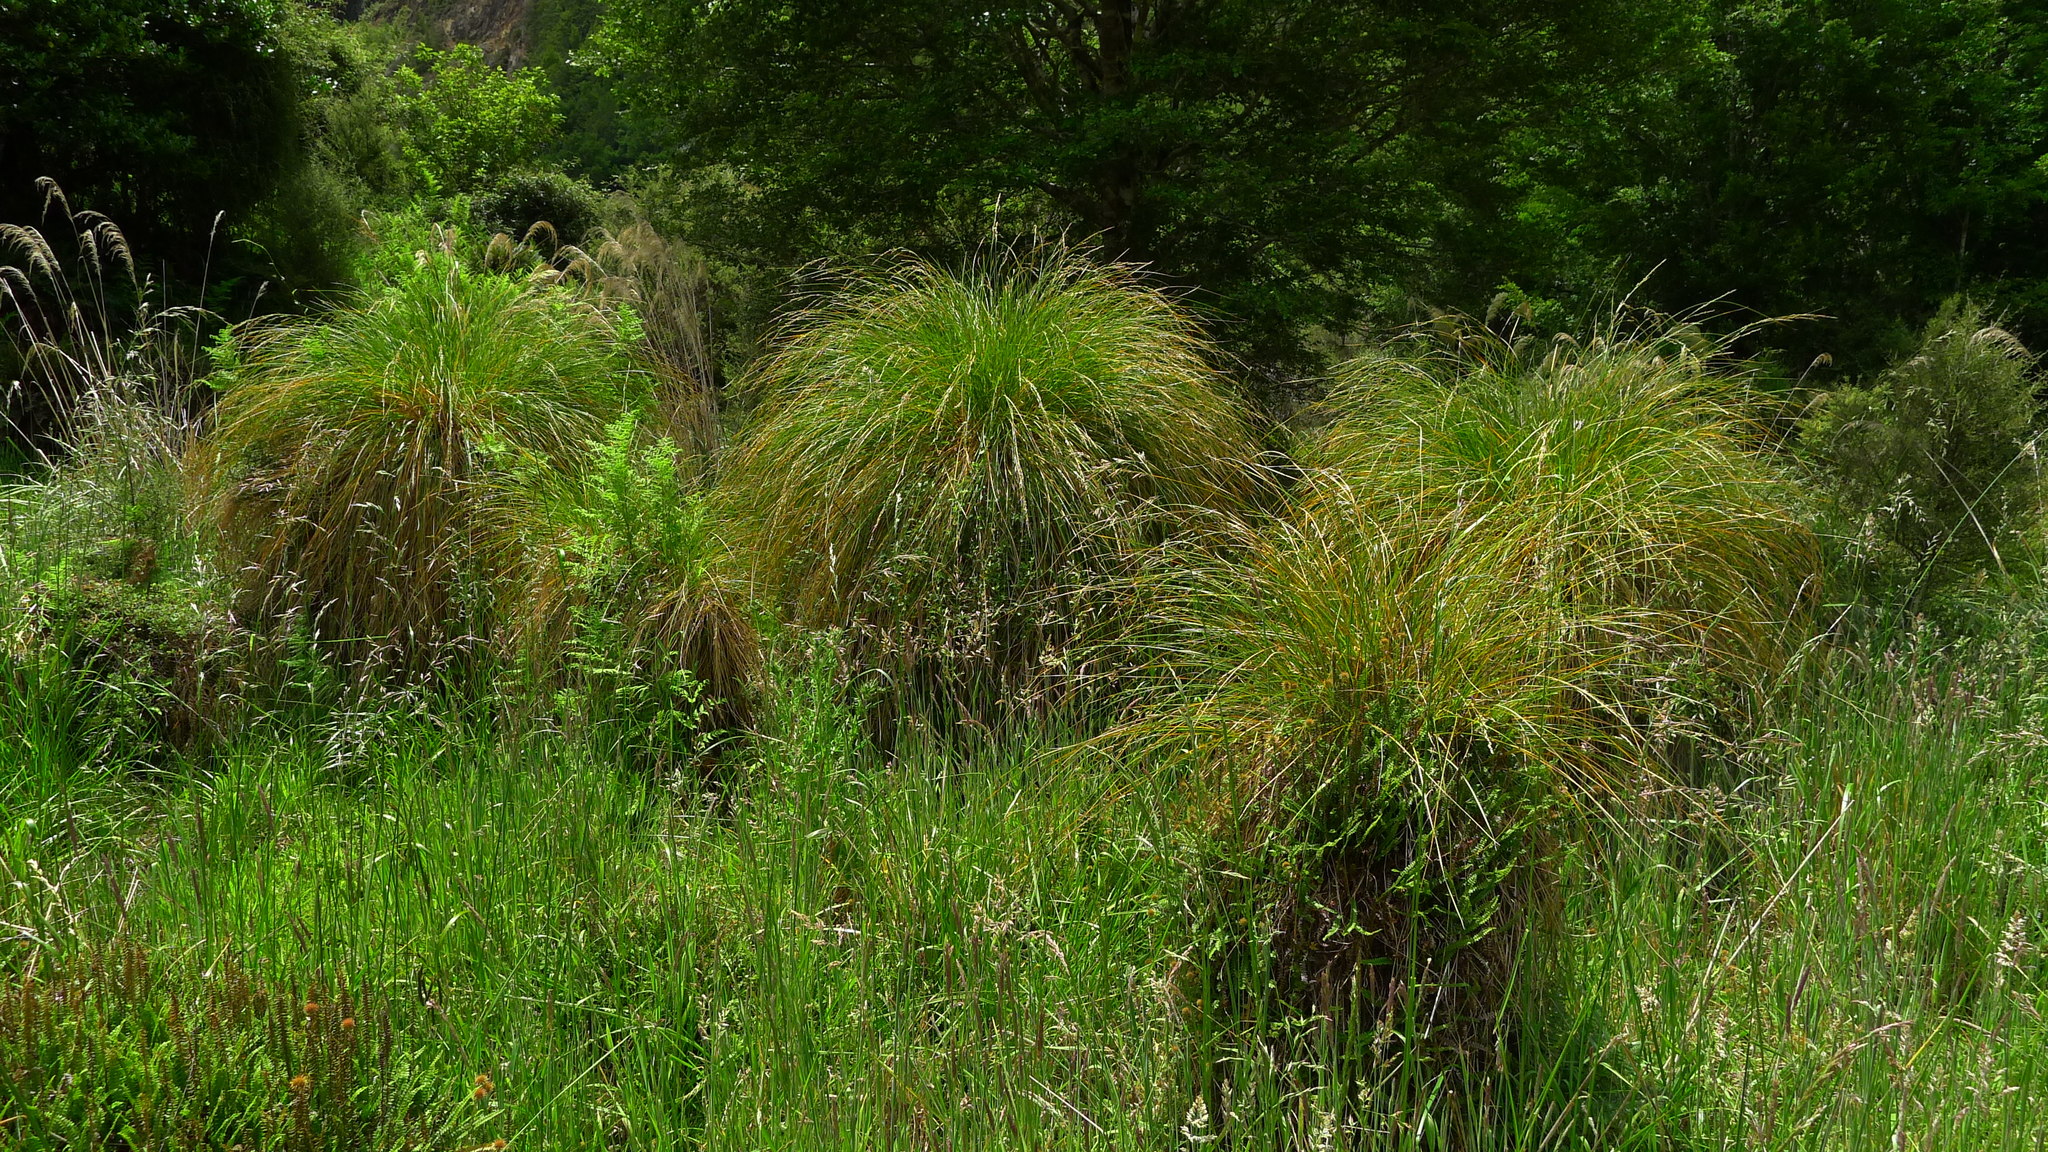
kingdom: Plantae
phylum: Tracheophyta
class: Liliopsida
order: Poales
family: Cyperaceae
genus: Carex
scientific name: Carex secta
